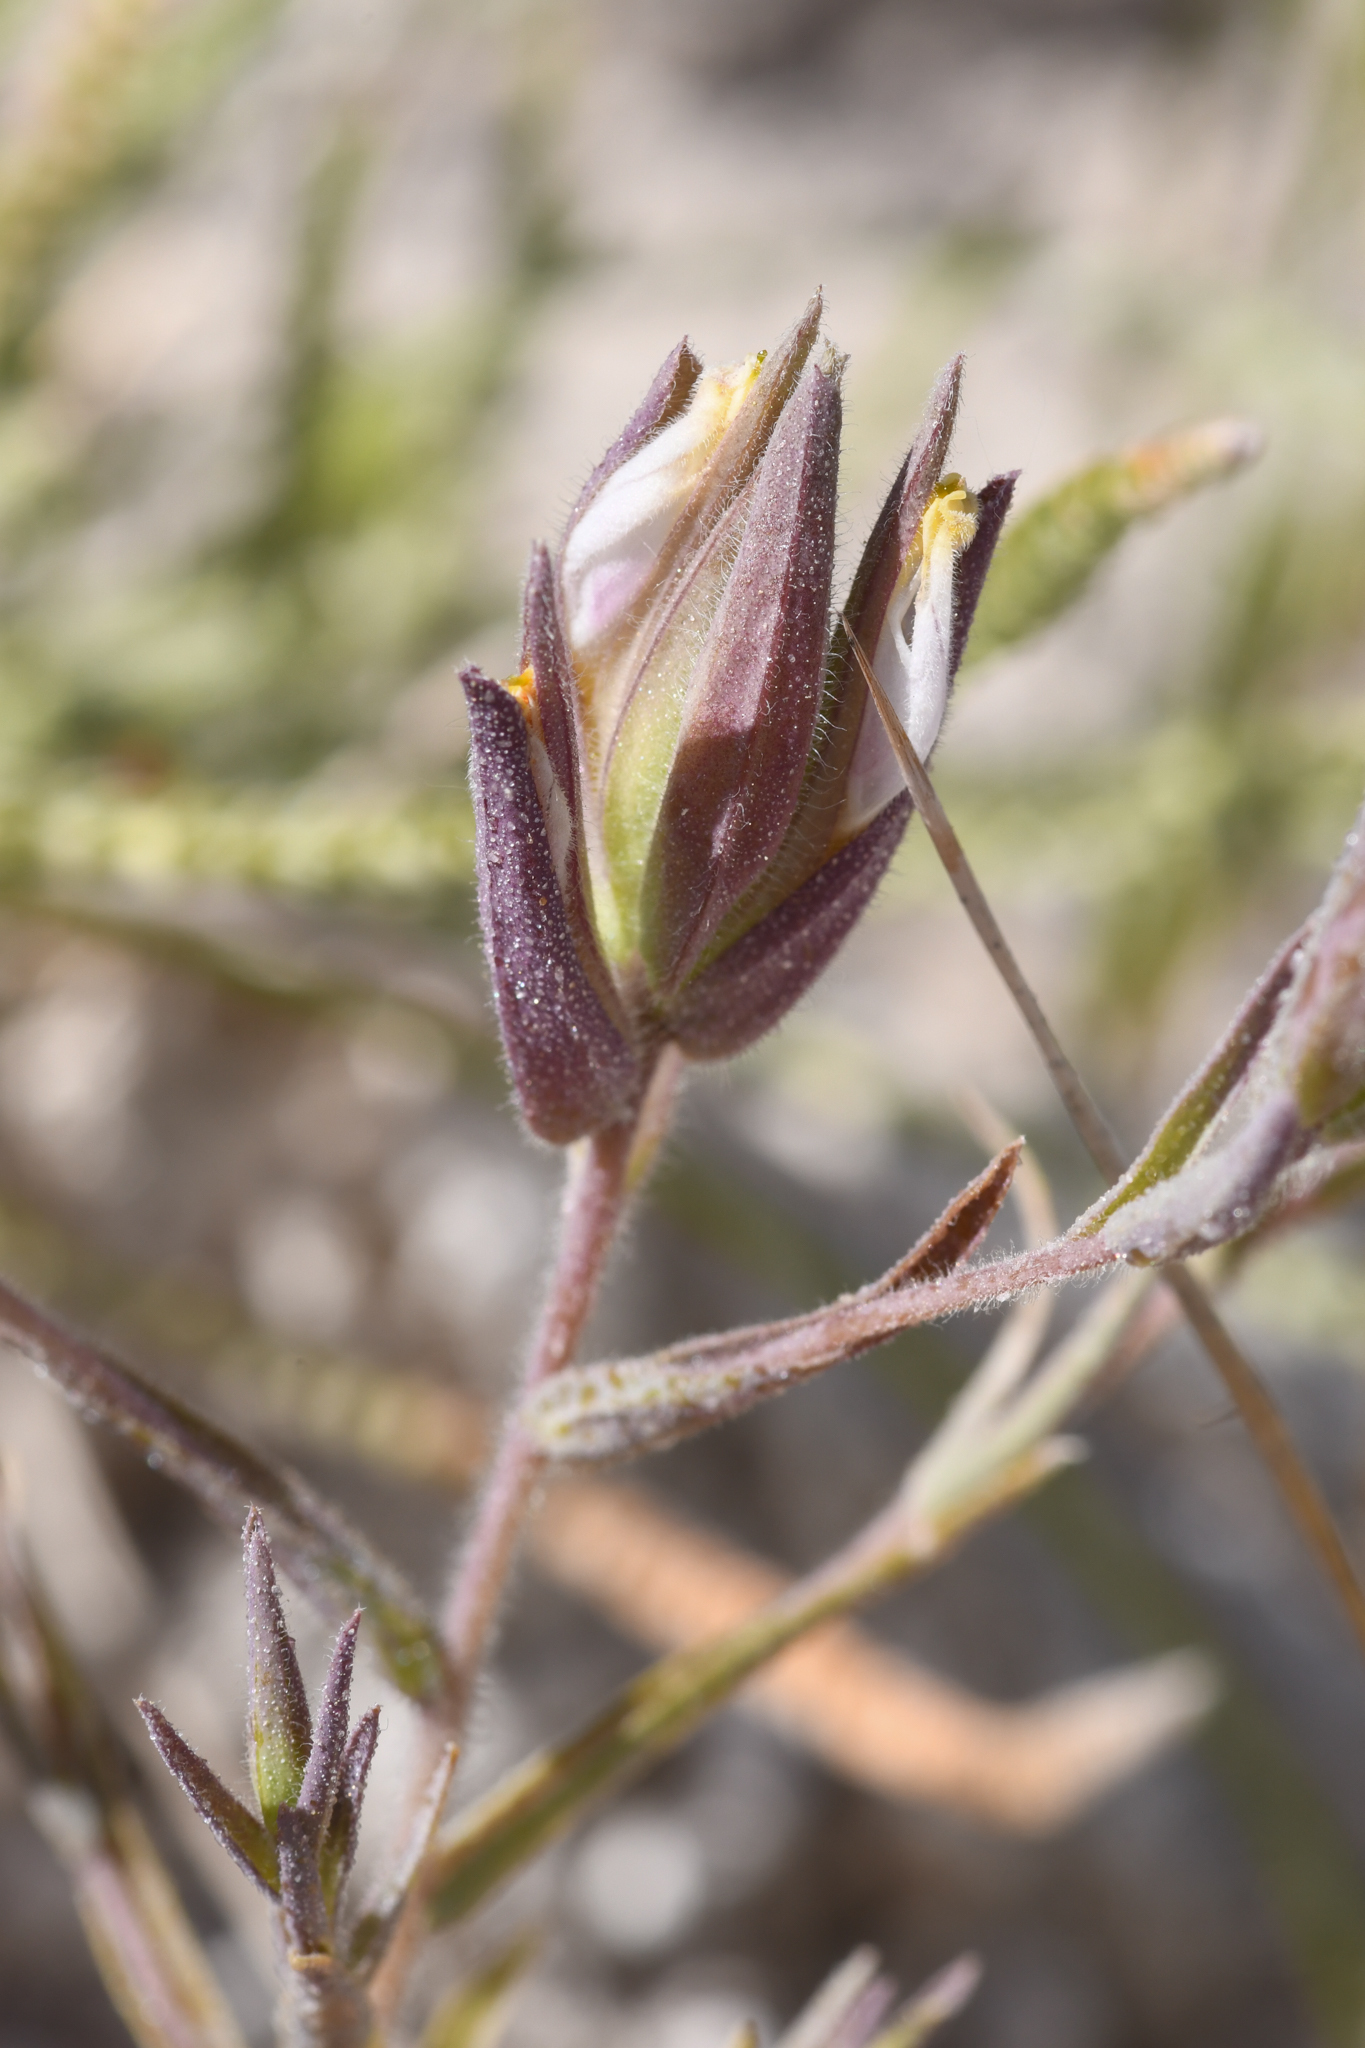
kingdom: Plantae
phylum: Tracheophyta
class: Magnoliopsida
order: Lamiales
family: Orobanchaceae
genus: Chloropyron
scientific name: Chloropyron maritimum
